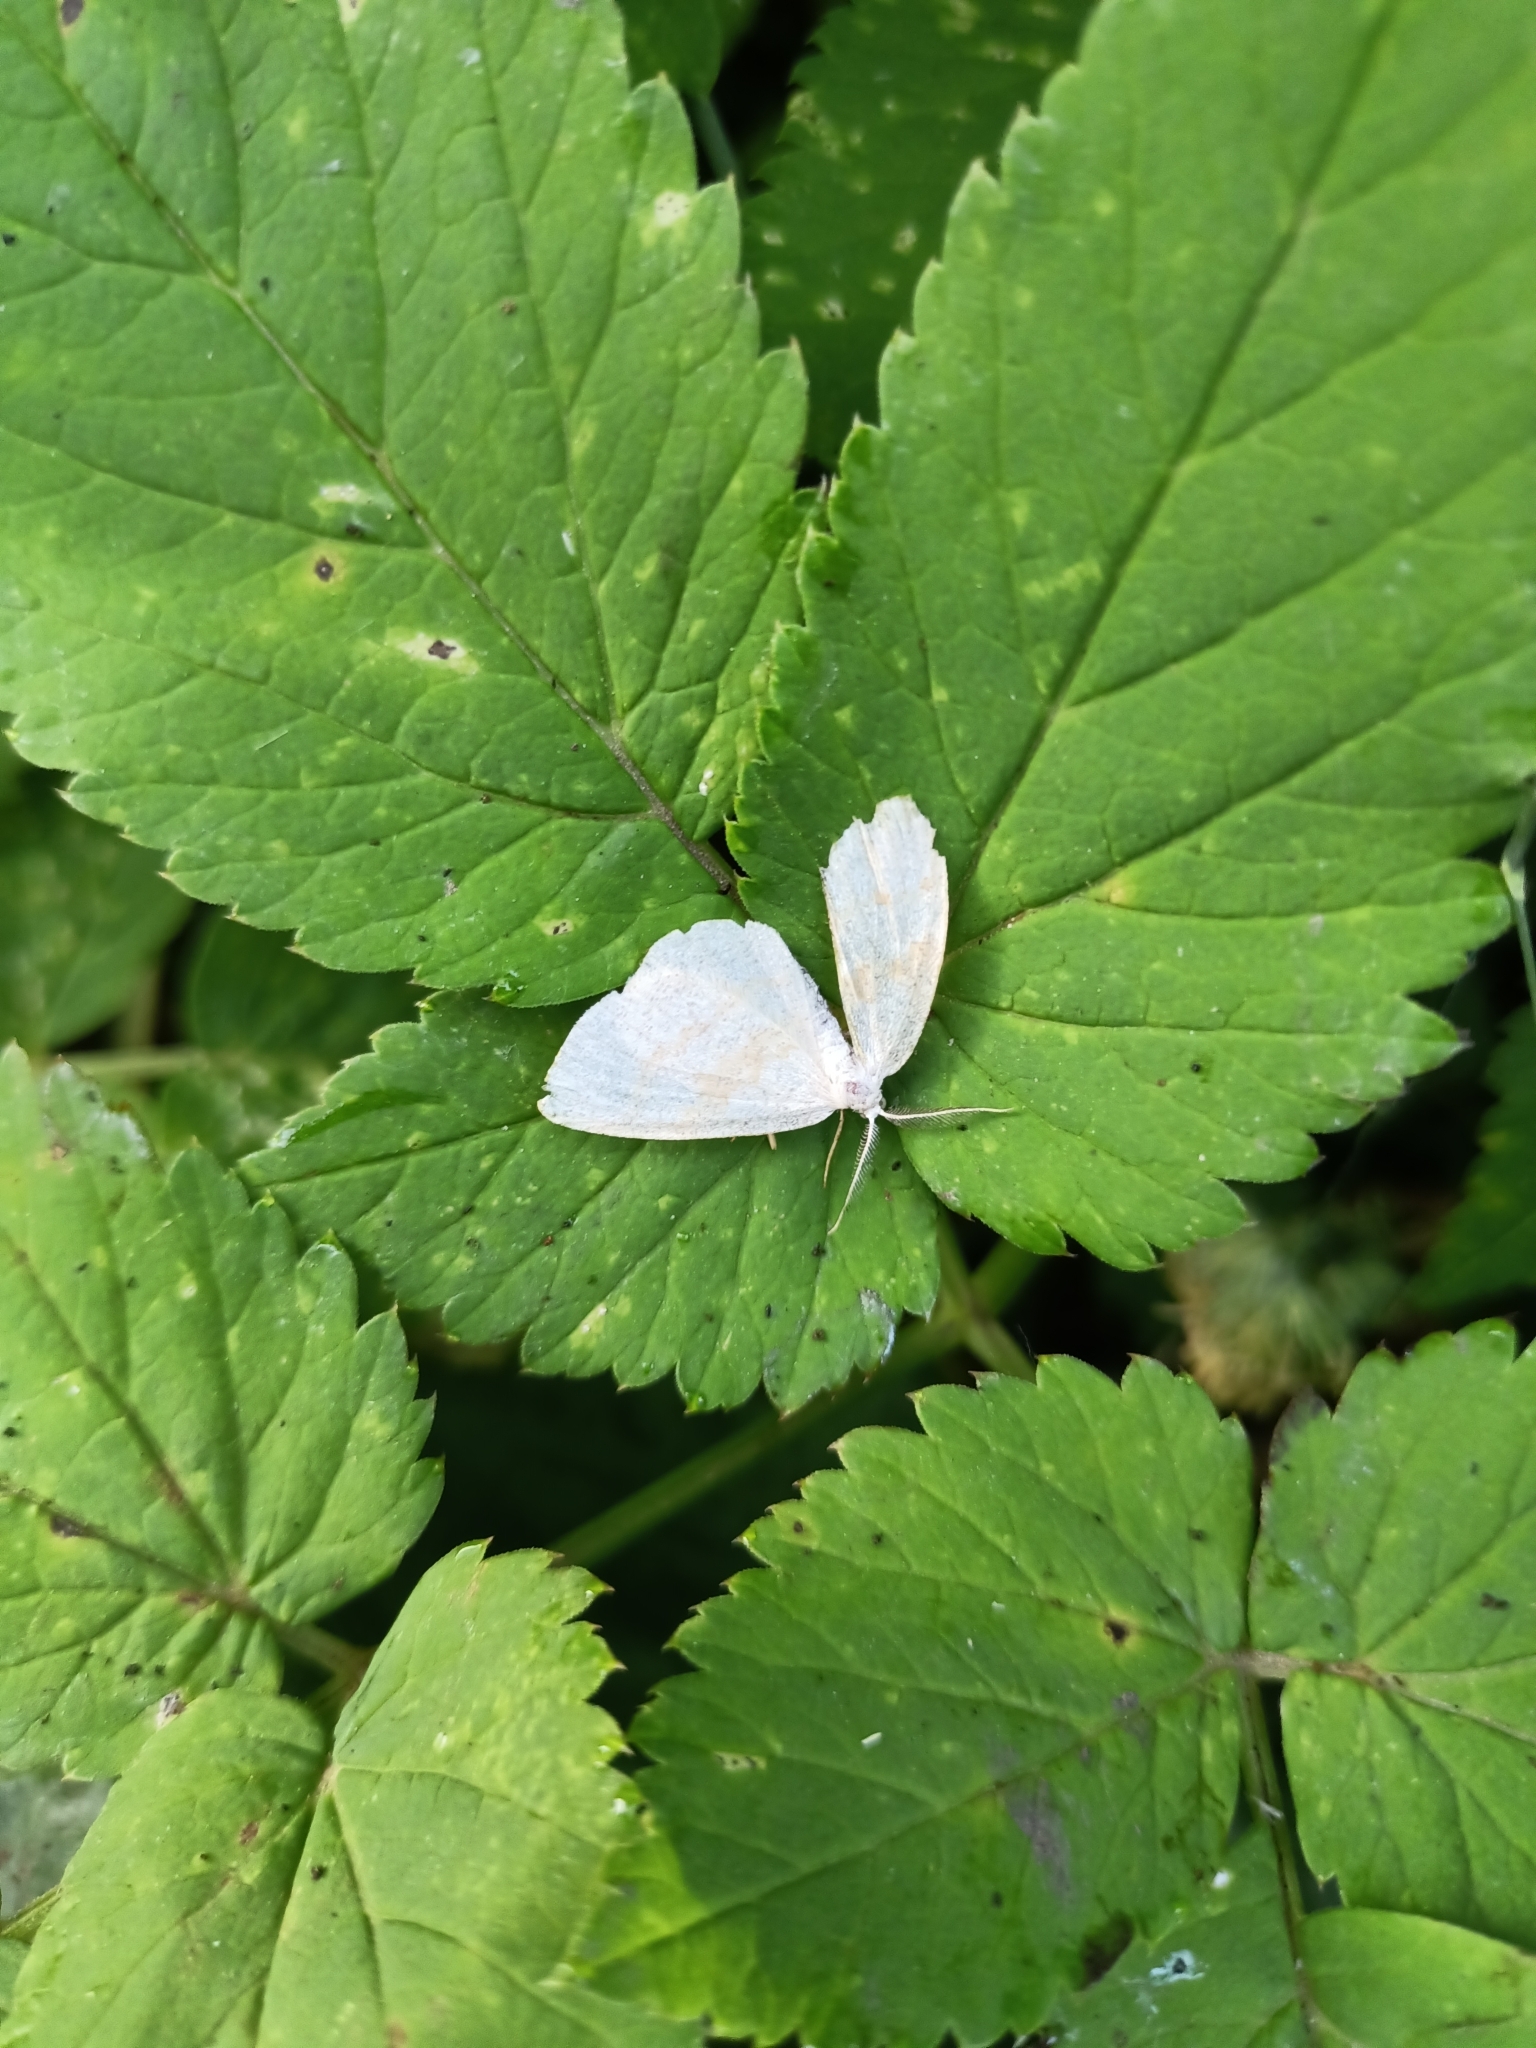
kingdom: Animalia
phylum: Arthropoda
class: Insecta
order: Lepidoptera
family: Geometridae
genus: Cepphis
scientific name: Cepphis advenaria
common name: Little thorn
